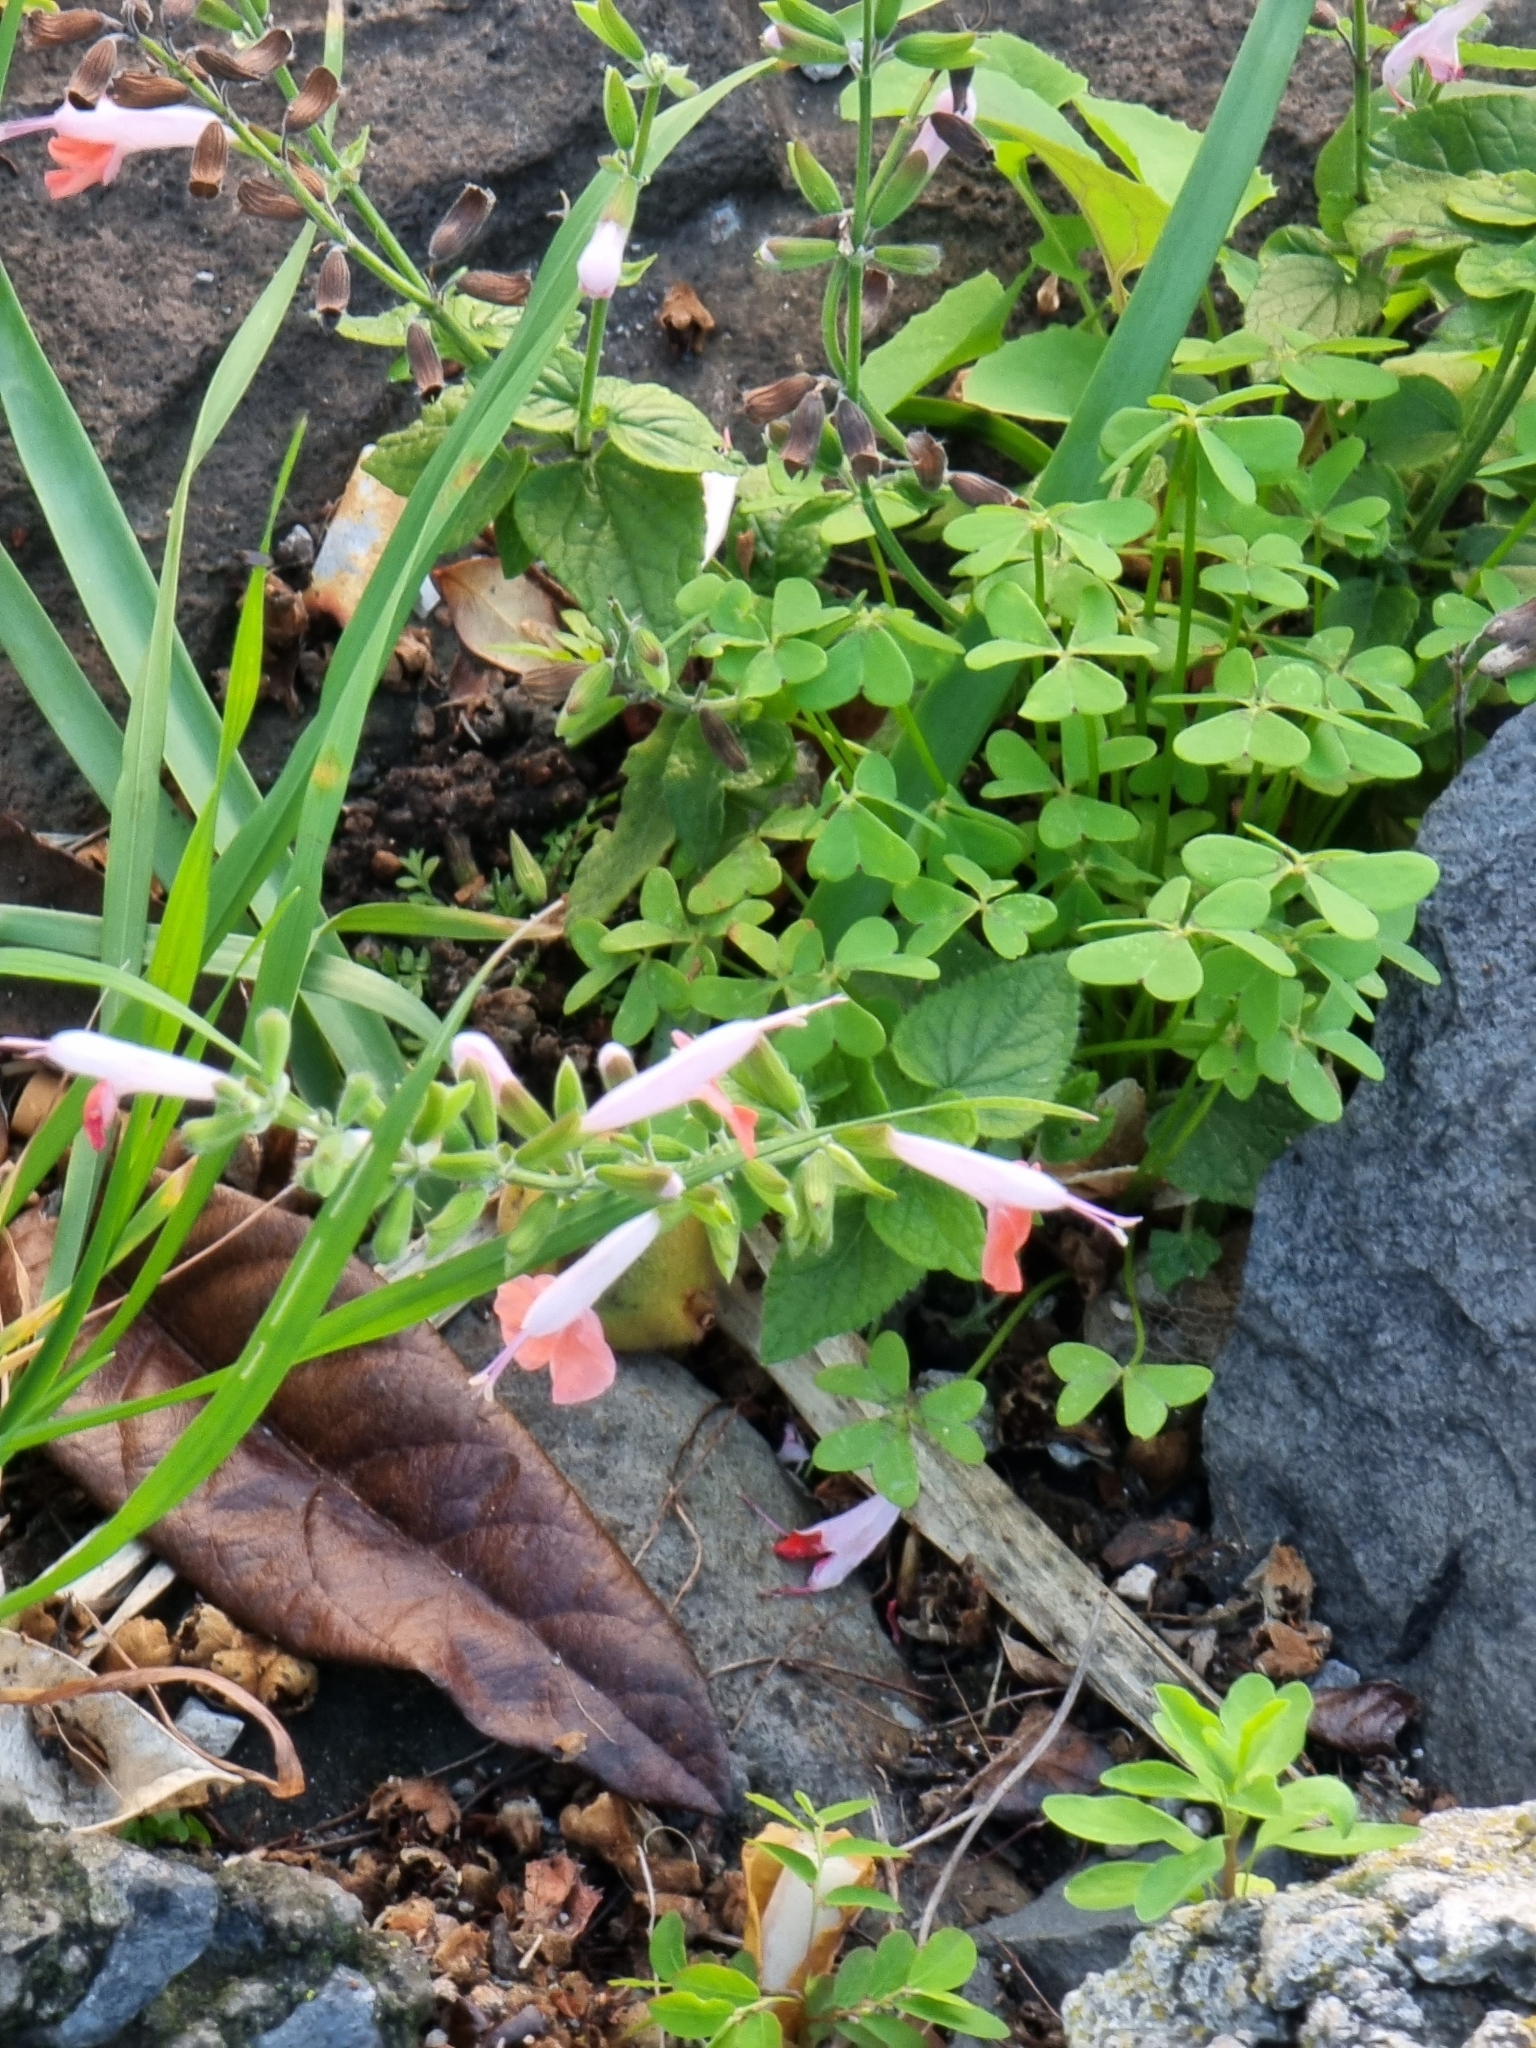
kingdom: Plantae
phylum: Tracheophyta
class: Magnoliopsida
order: Lamiales
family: Lamiaceae
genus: Salvia
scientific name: Salvia coccinea
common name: Blood sage
